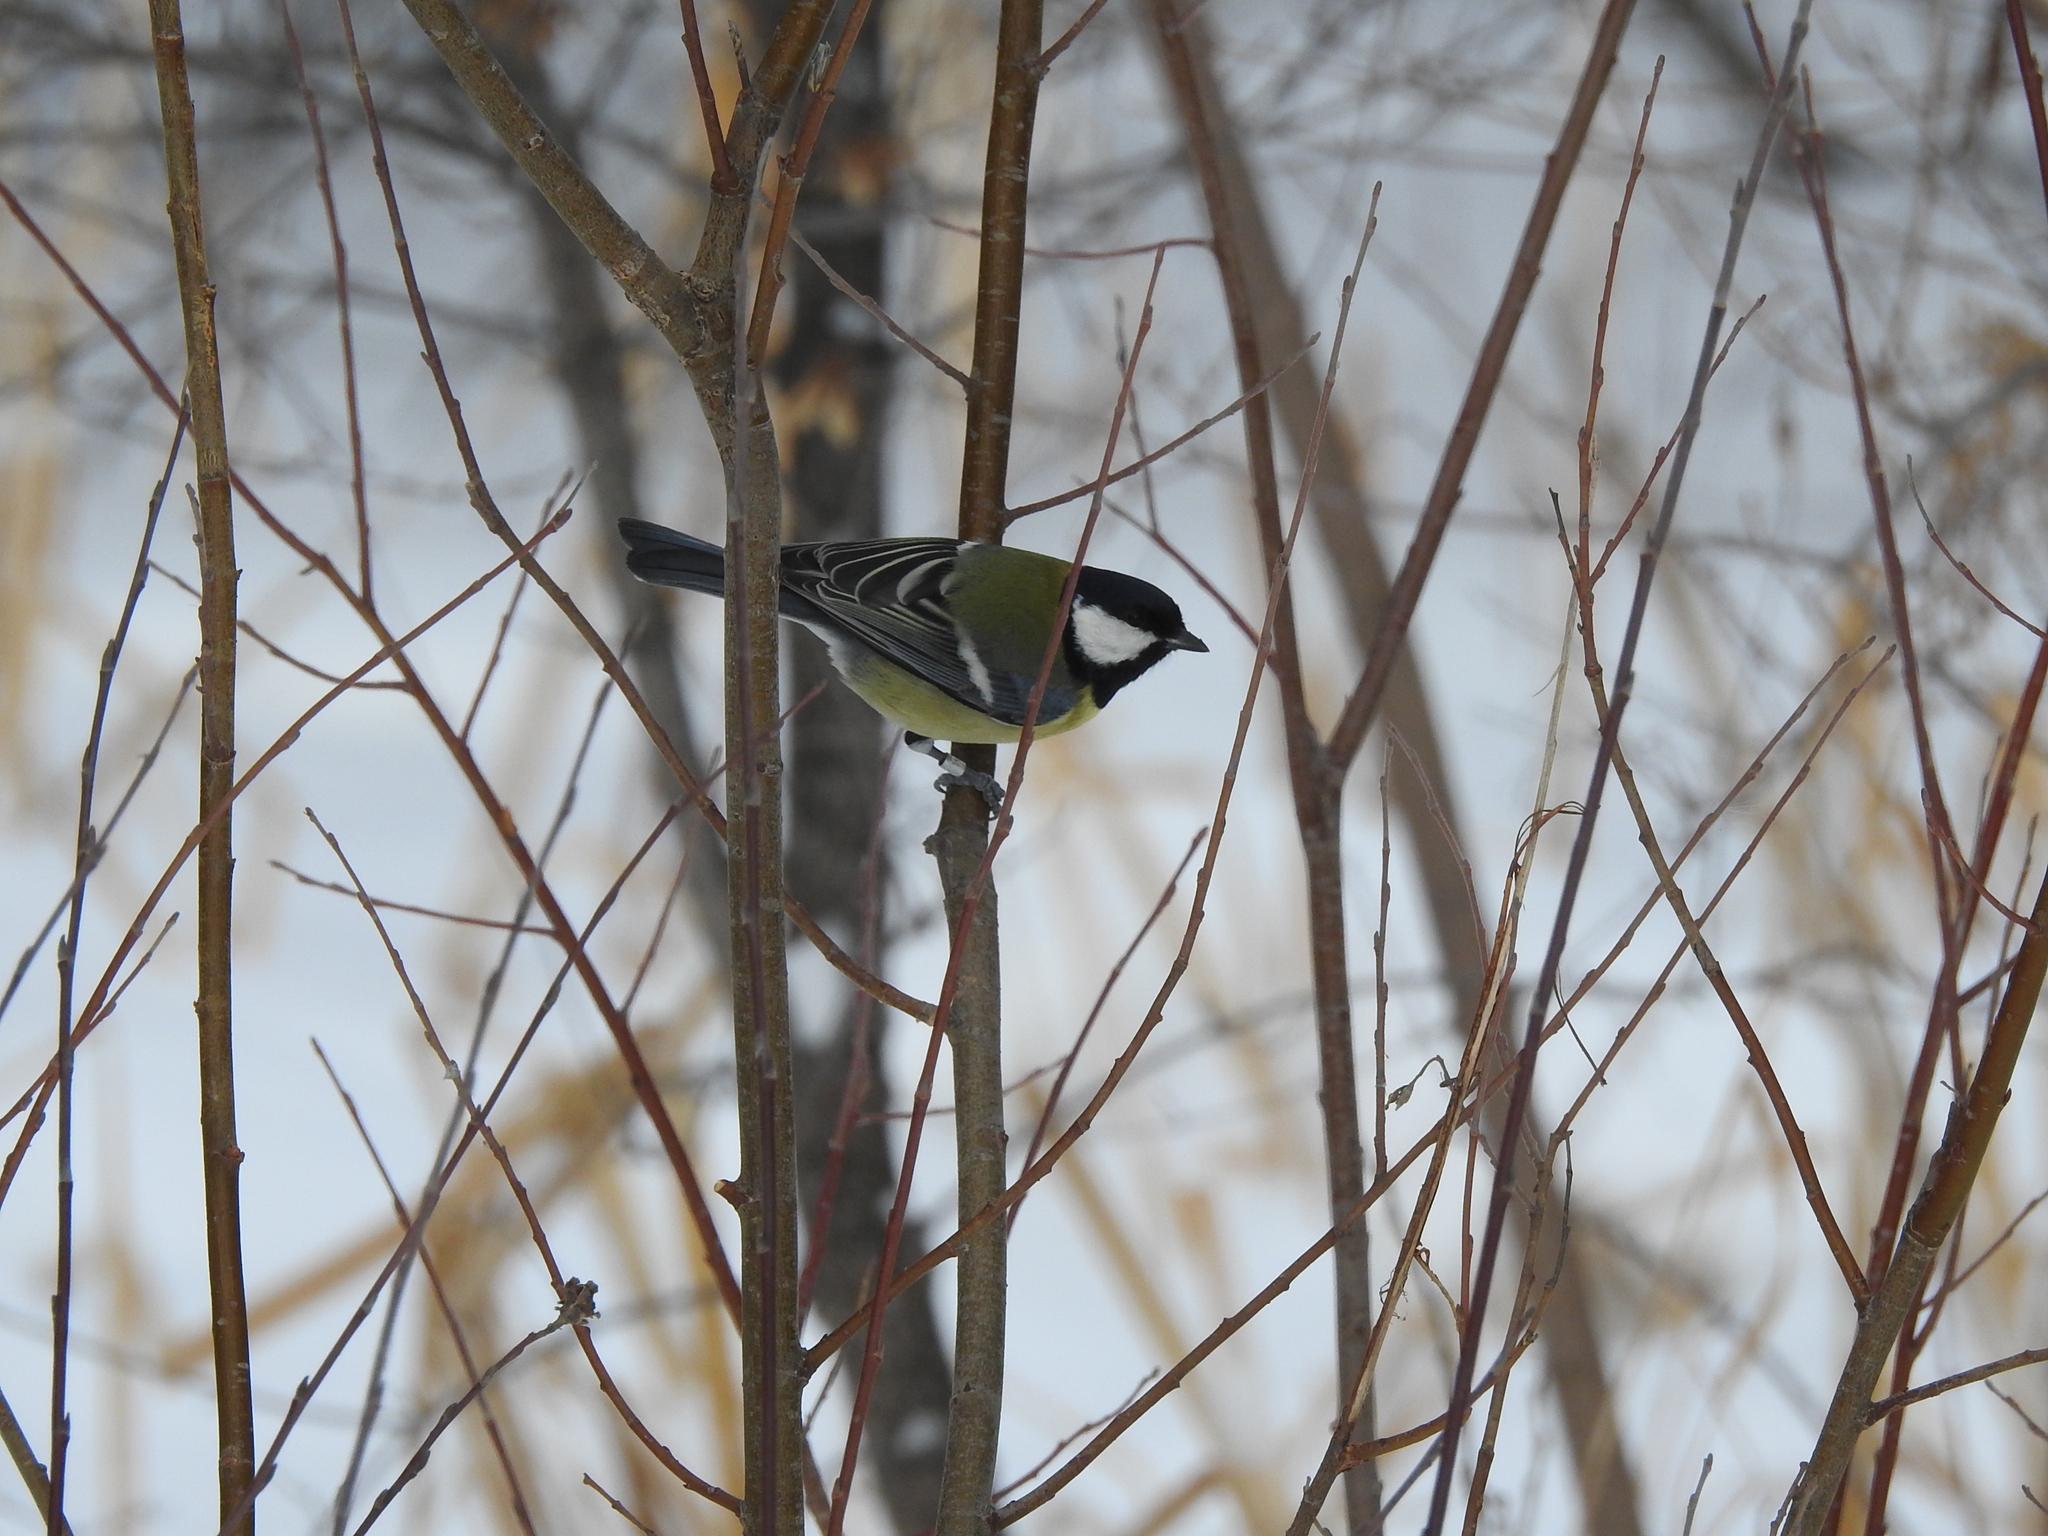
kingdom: Animalia
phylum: Chordata
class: Aves
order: Passeriformes
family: Paridae
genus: Parus
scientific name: Parus major
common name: Great tit
